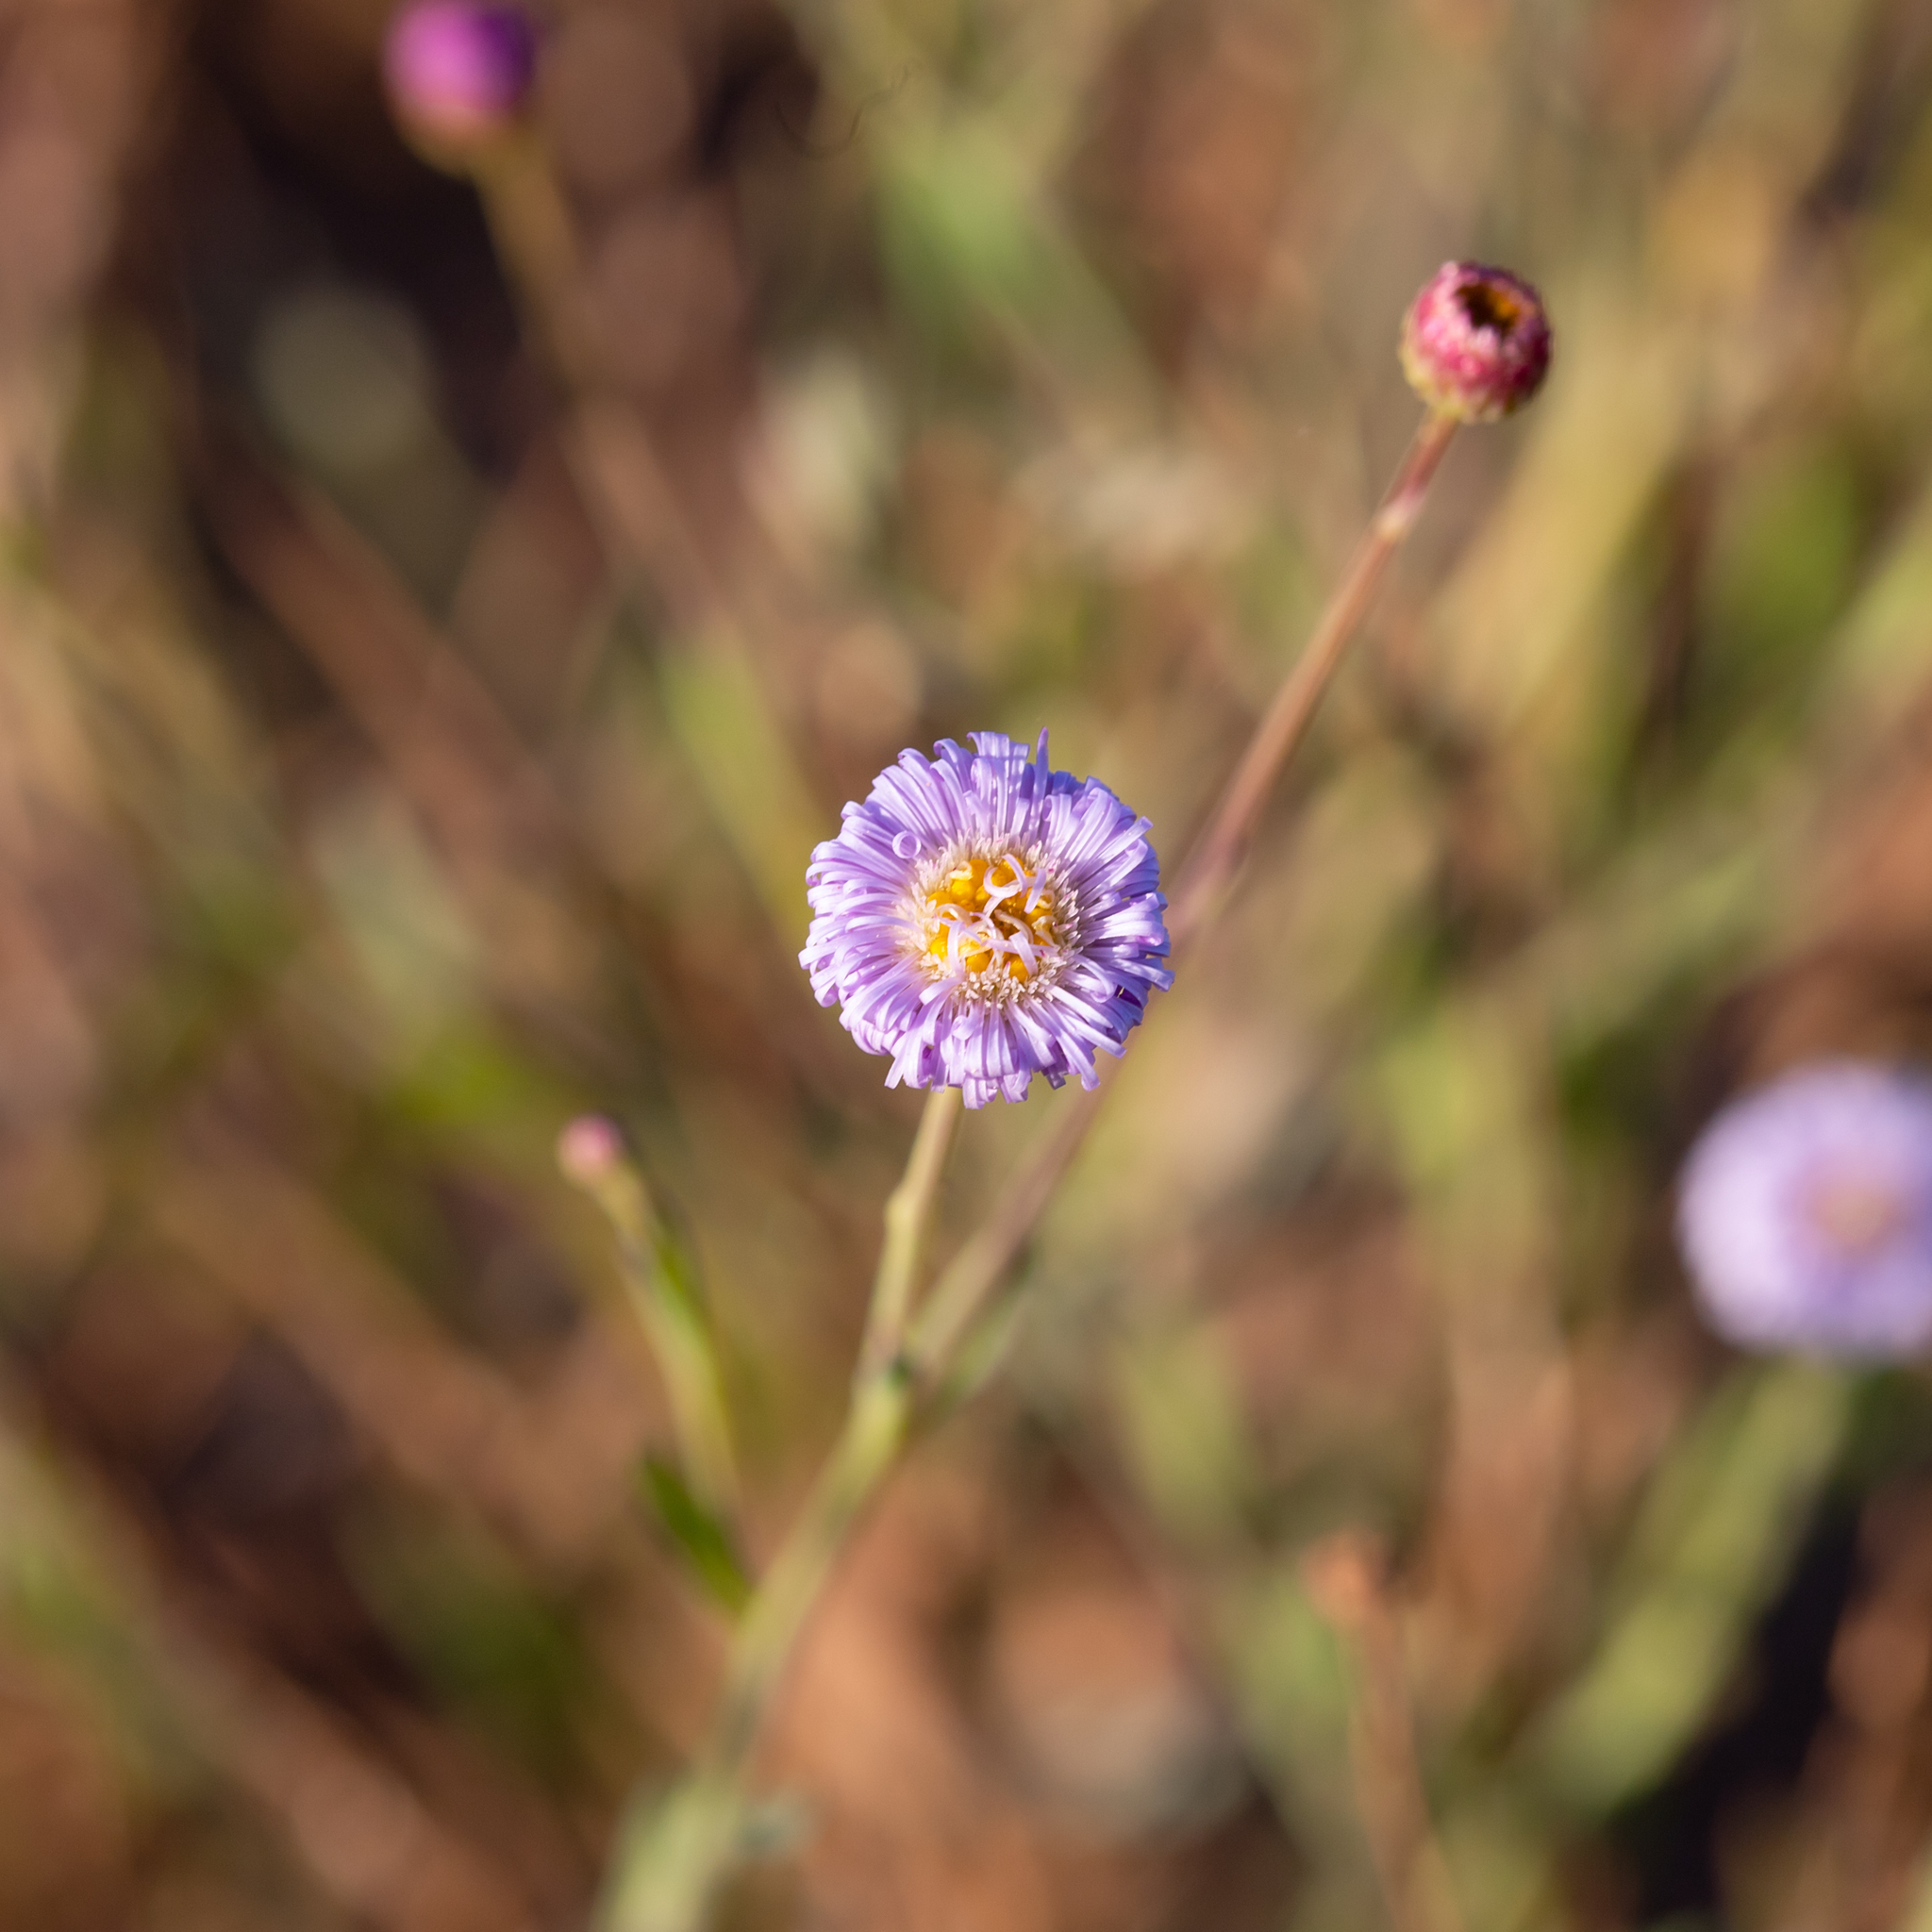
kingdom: Plantae
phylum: Tracheophyta
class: Magnoliopsida
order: Asterales
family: Asteraceae
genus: Minuria
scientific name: Minuria integerrima
